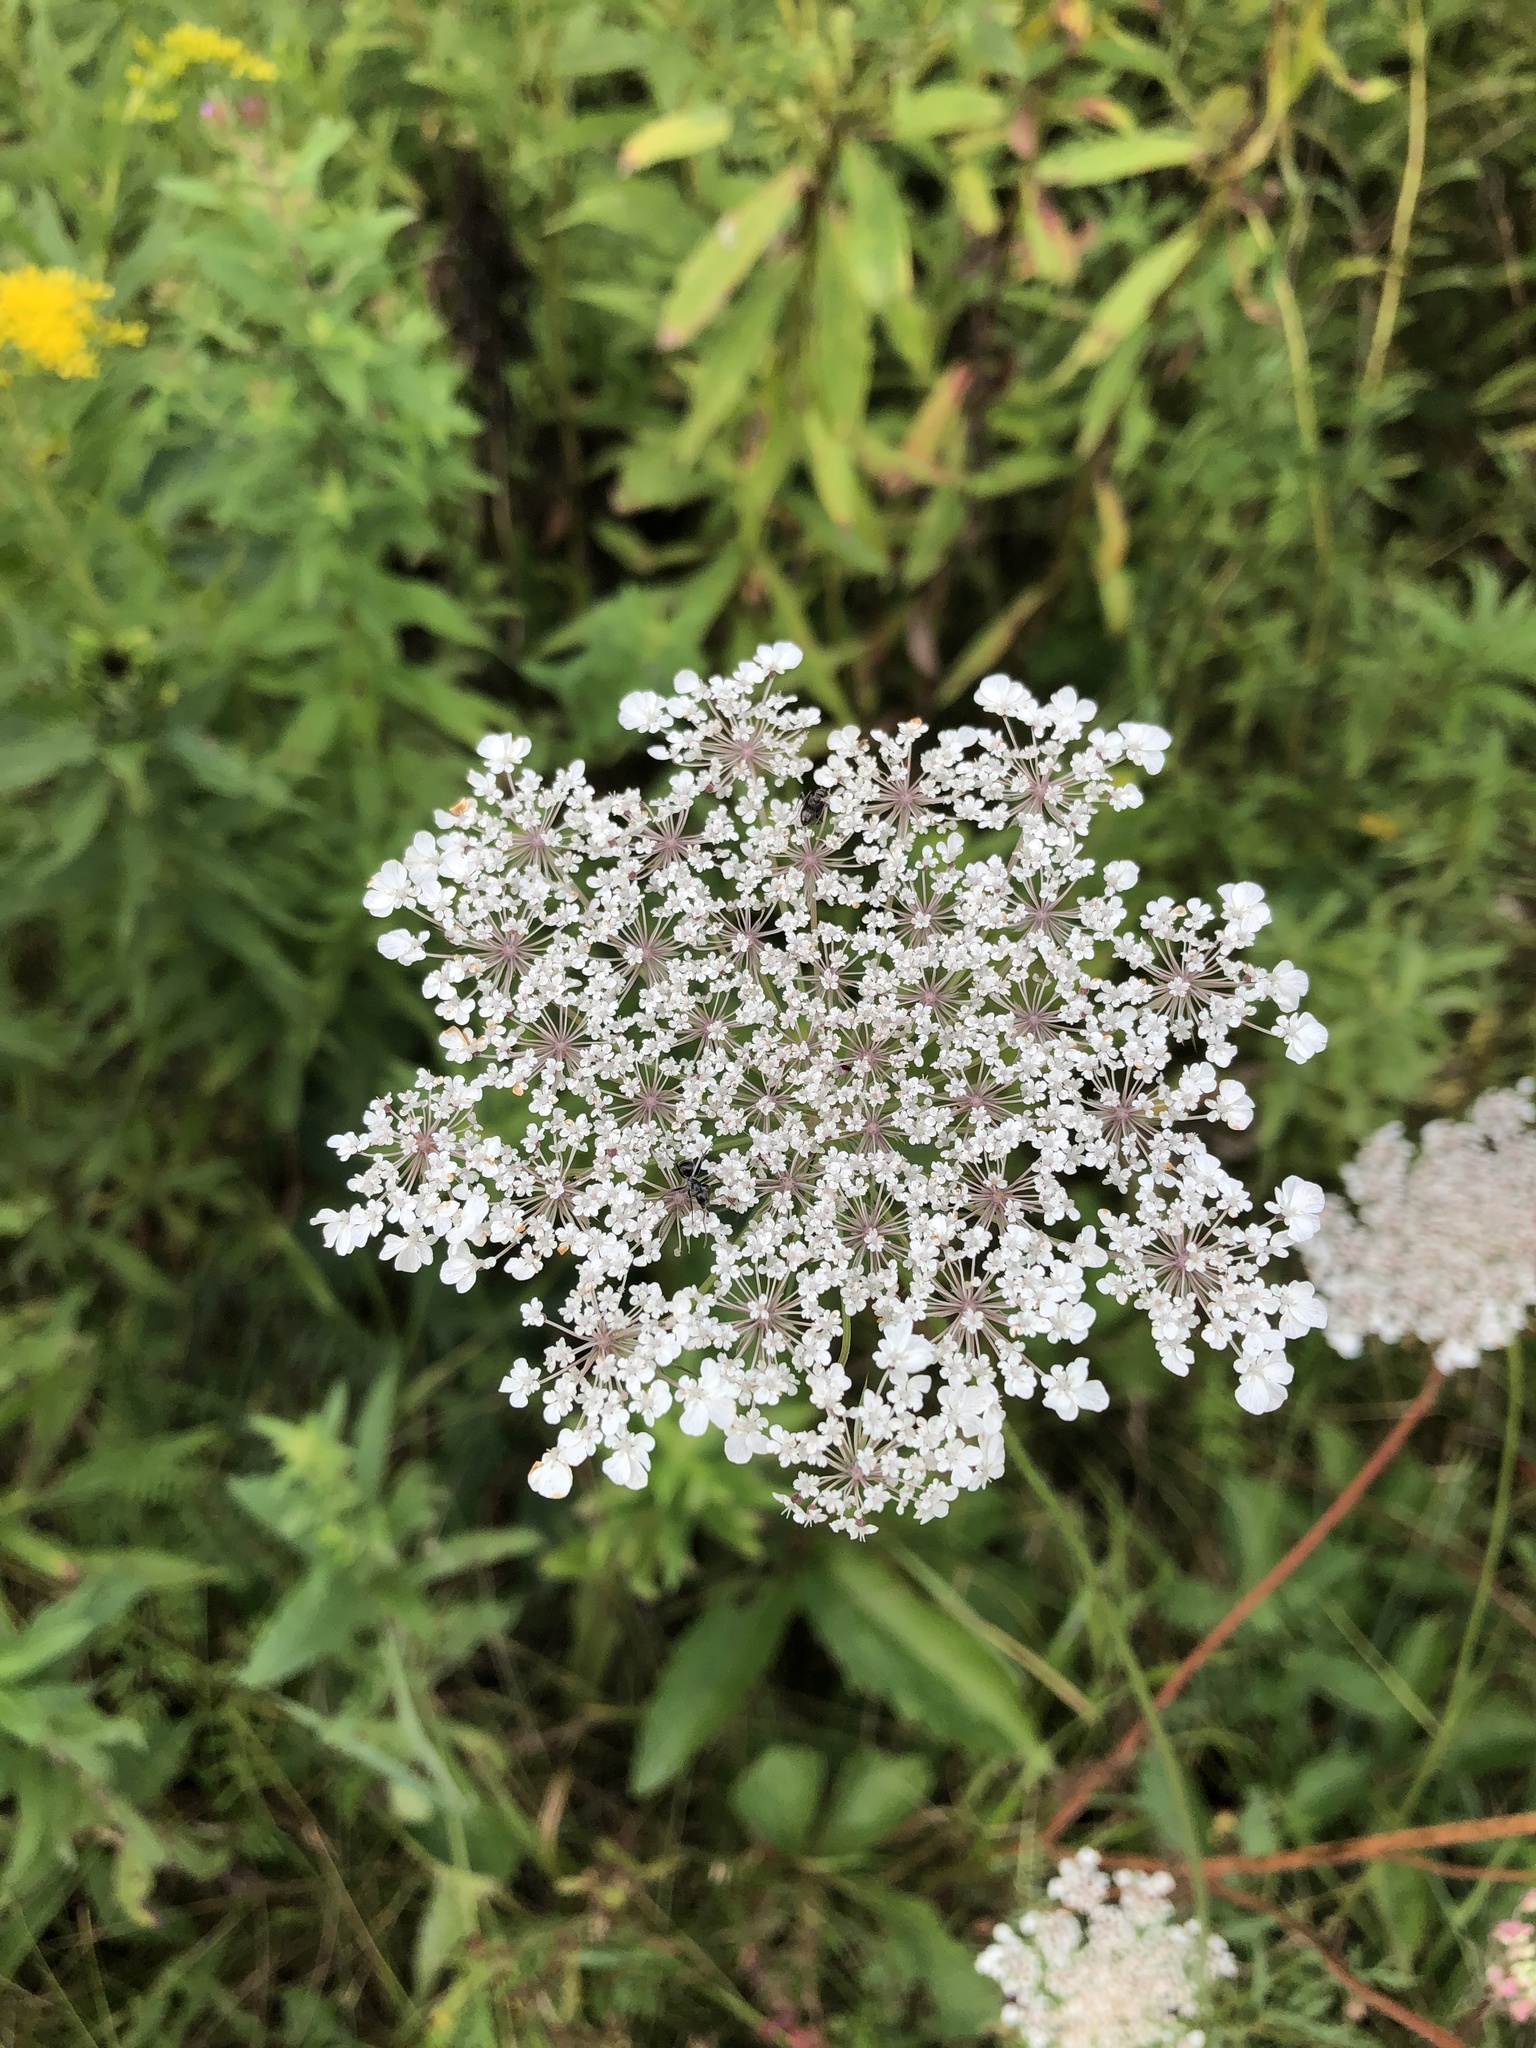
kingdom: Plantae
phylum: Tracheophyta
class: Magnoliopsida
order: Apiales
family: Apiaceae
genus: Daucus
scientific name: Daucus carota
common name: Wild carrot
